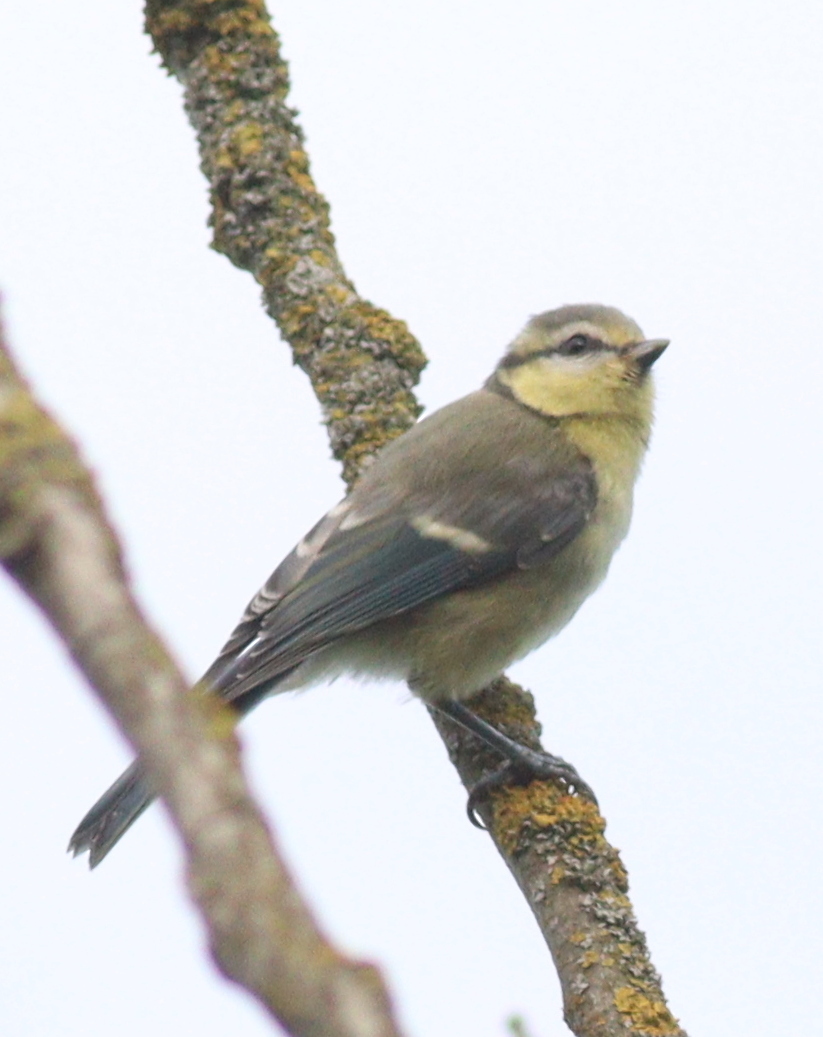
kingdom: Animalia
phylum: Chordata
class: Aves
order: Passeriformes
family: Paridae
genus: Cyanistes
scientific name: Cyanistes caeruleus
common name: Eurasian blue tit
